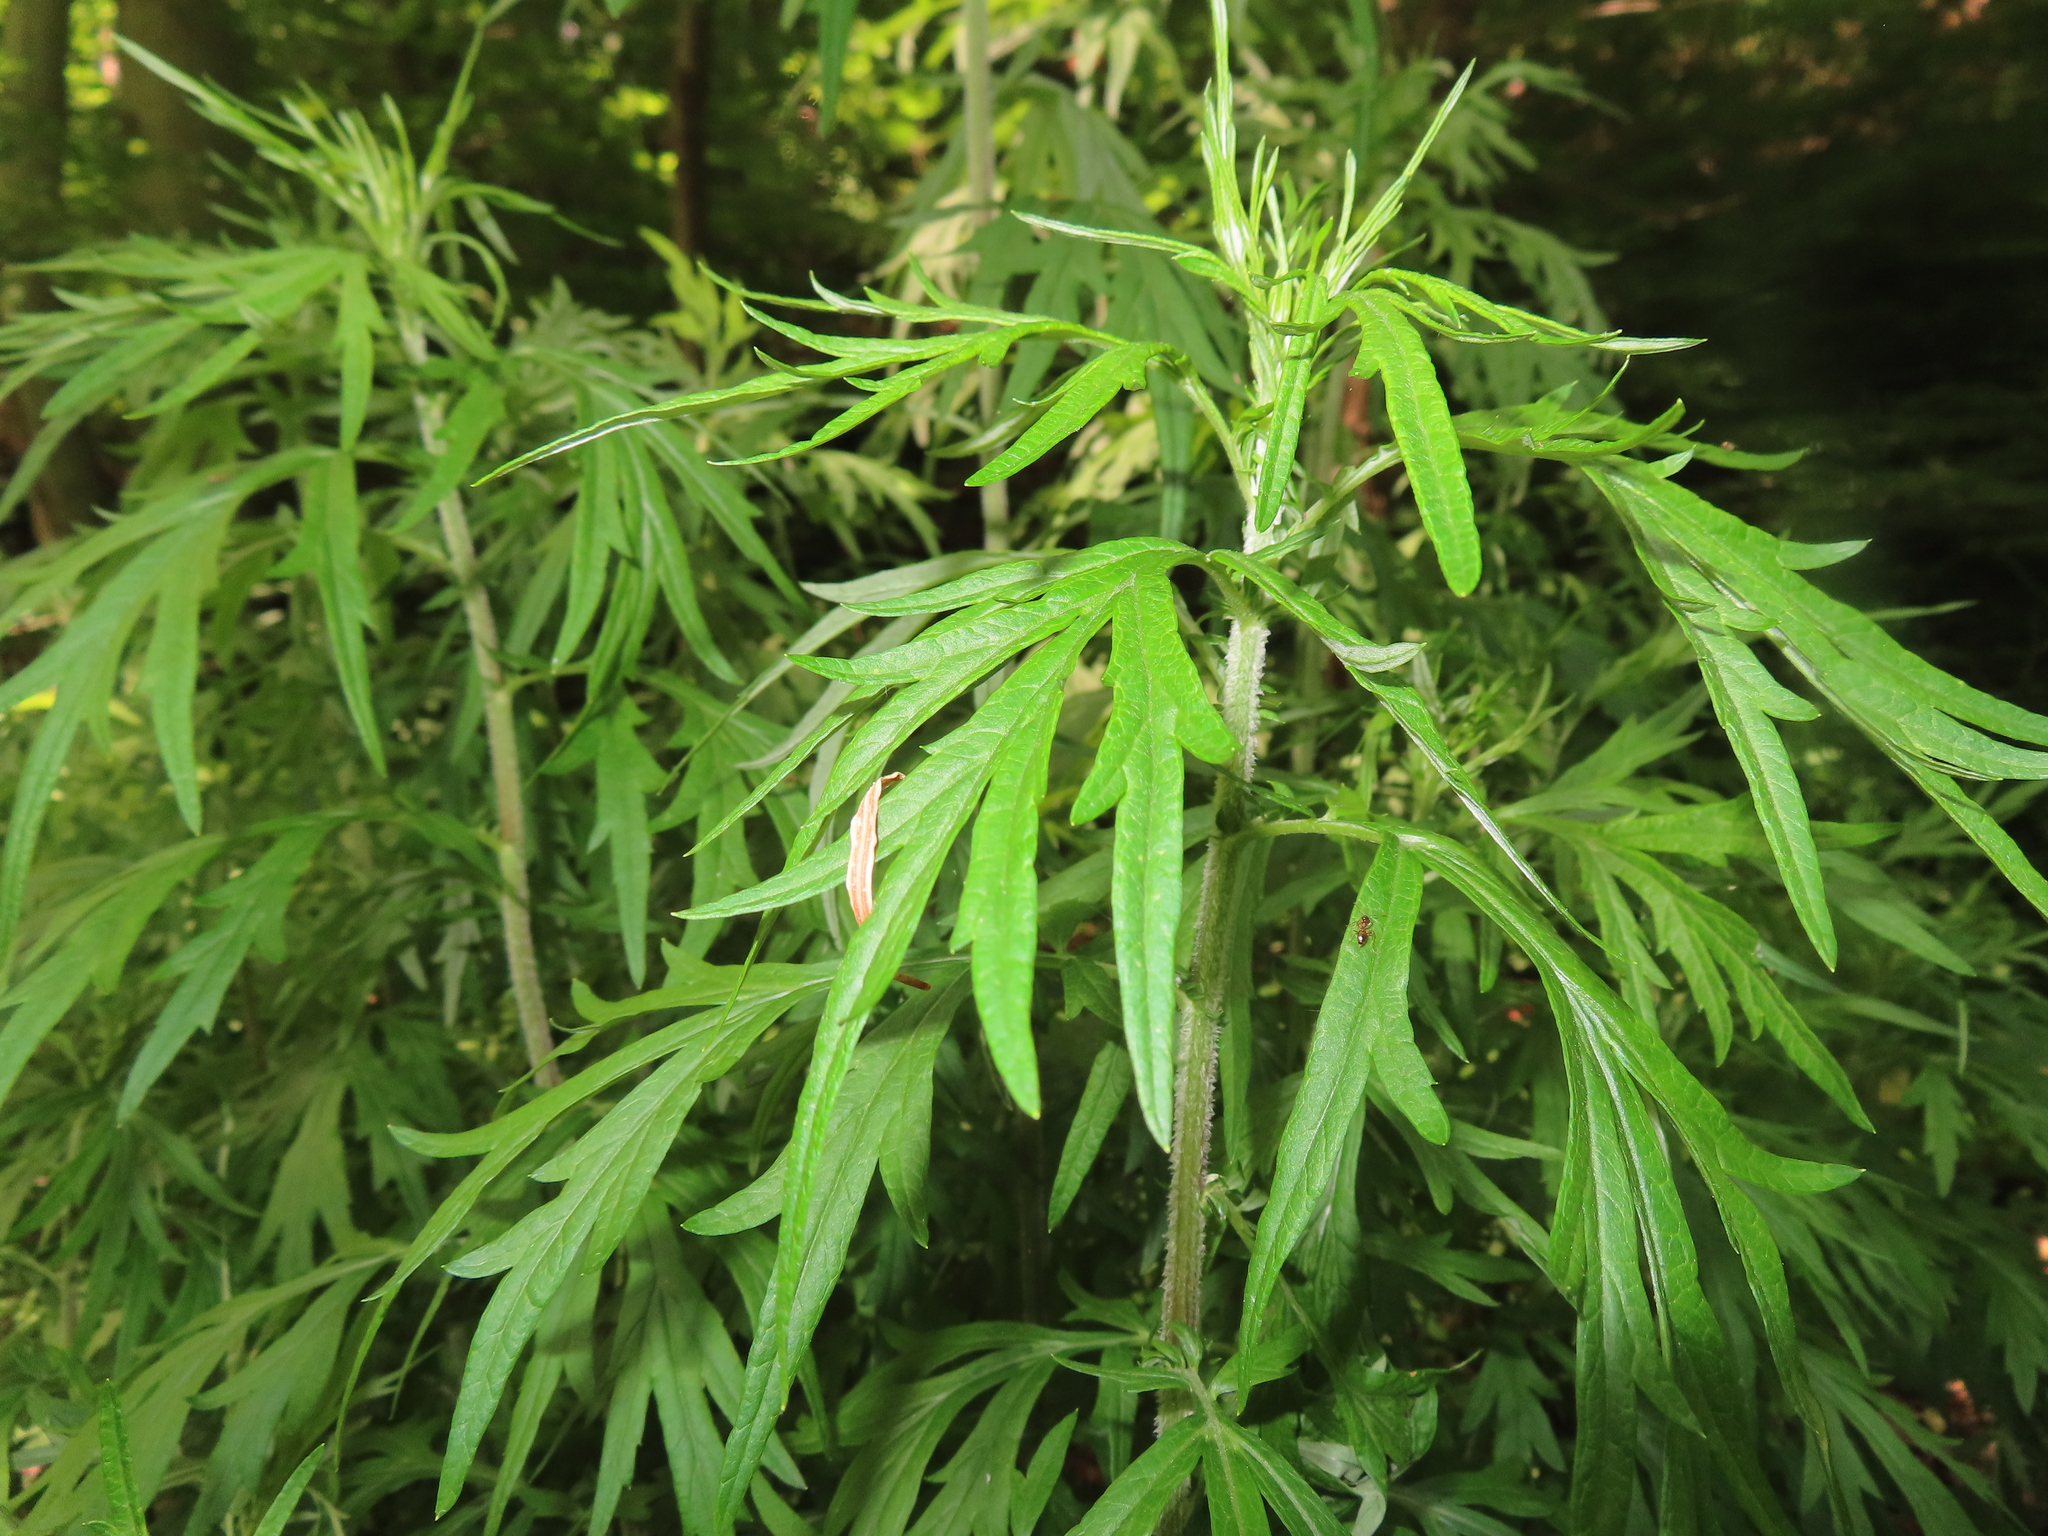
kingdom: Plantae
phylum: Tracheophyta
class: Magnoliopsida
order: Asterales
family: Asteraceae
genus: Artemisia
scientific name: Artemisia vulgaris
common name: Mugwort
